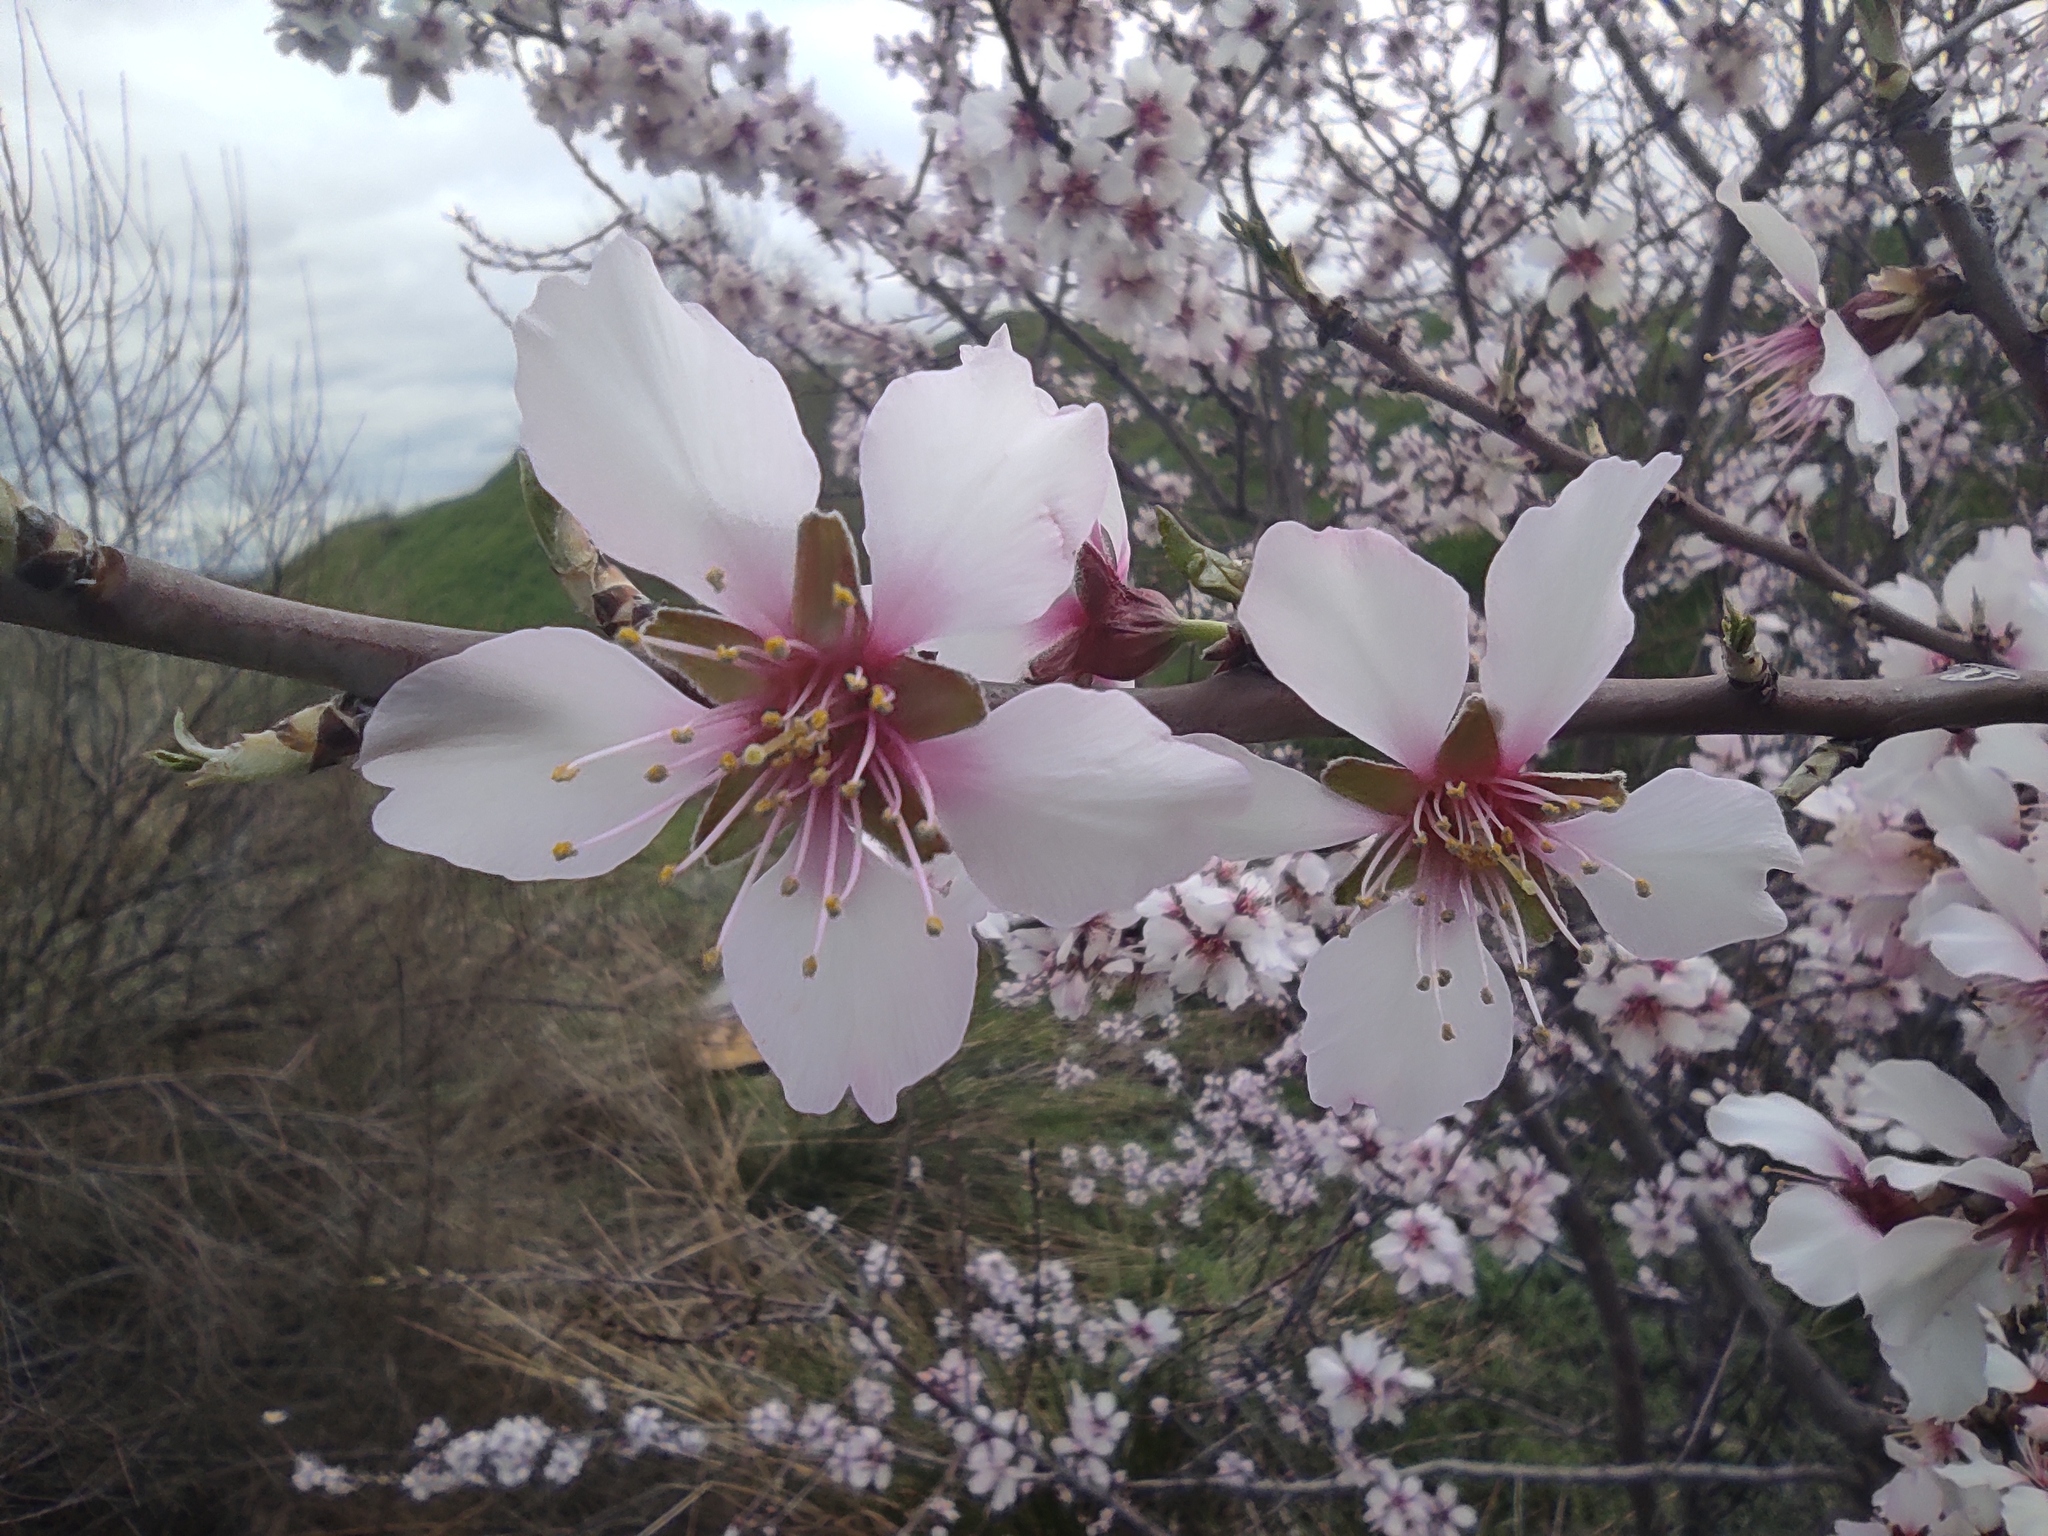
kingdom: Plantae
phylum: Tracheophyta
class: Magnoliopsida
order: Rosales
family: Rosaceae
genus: Prunus
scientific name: Prunus amygdalus
